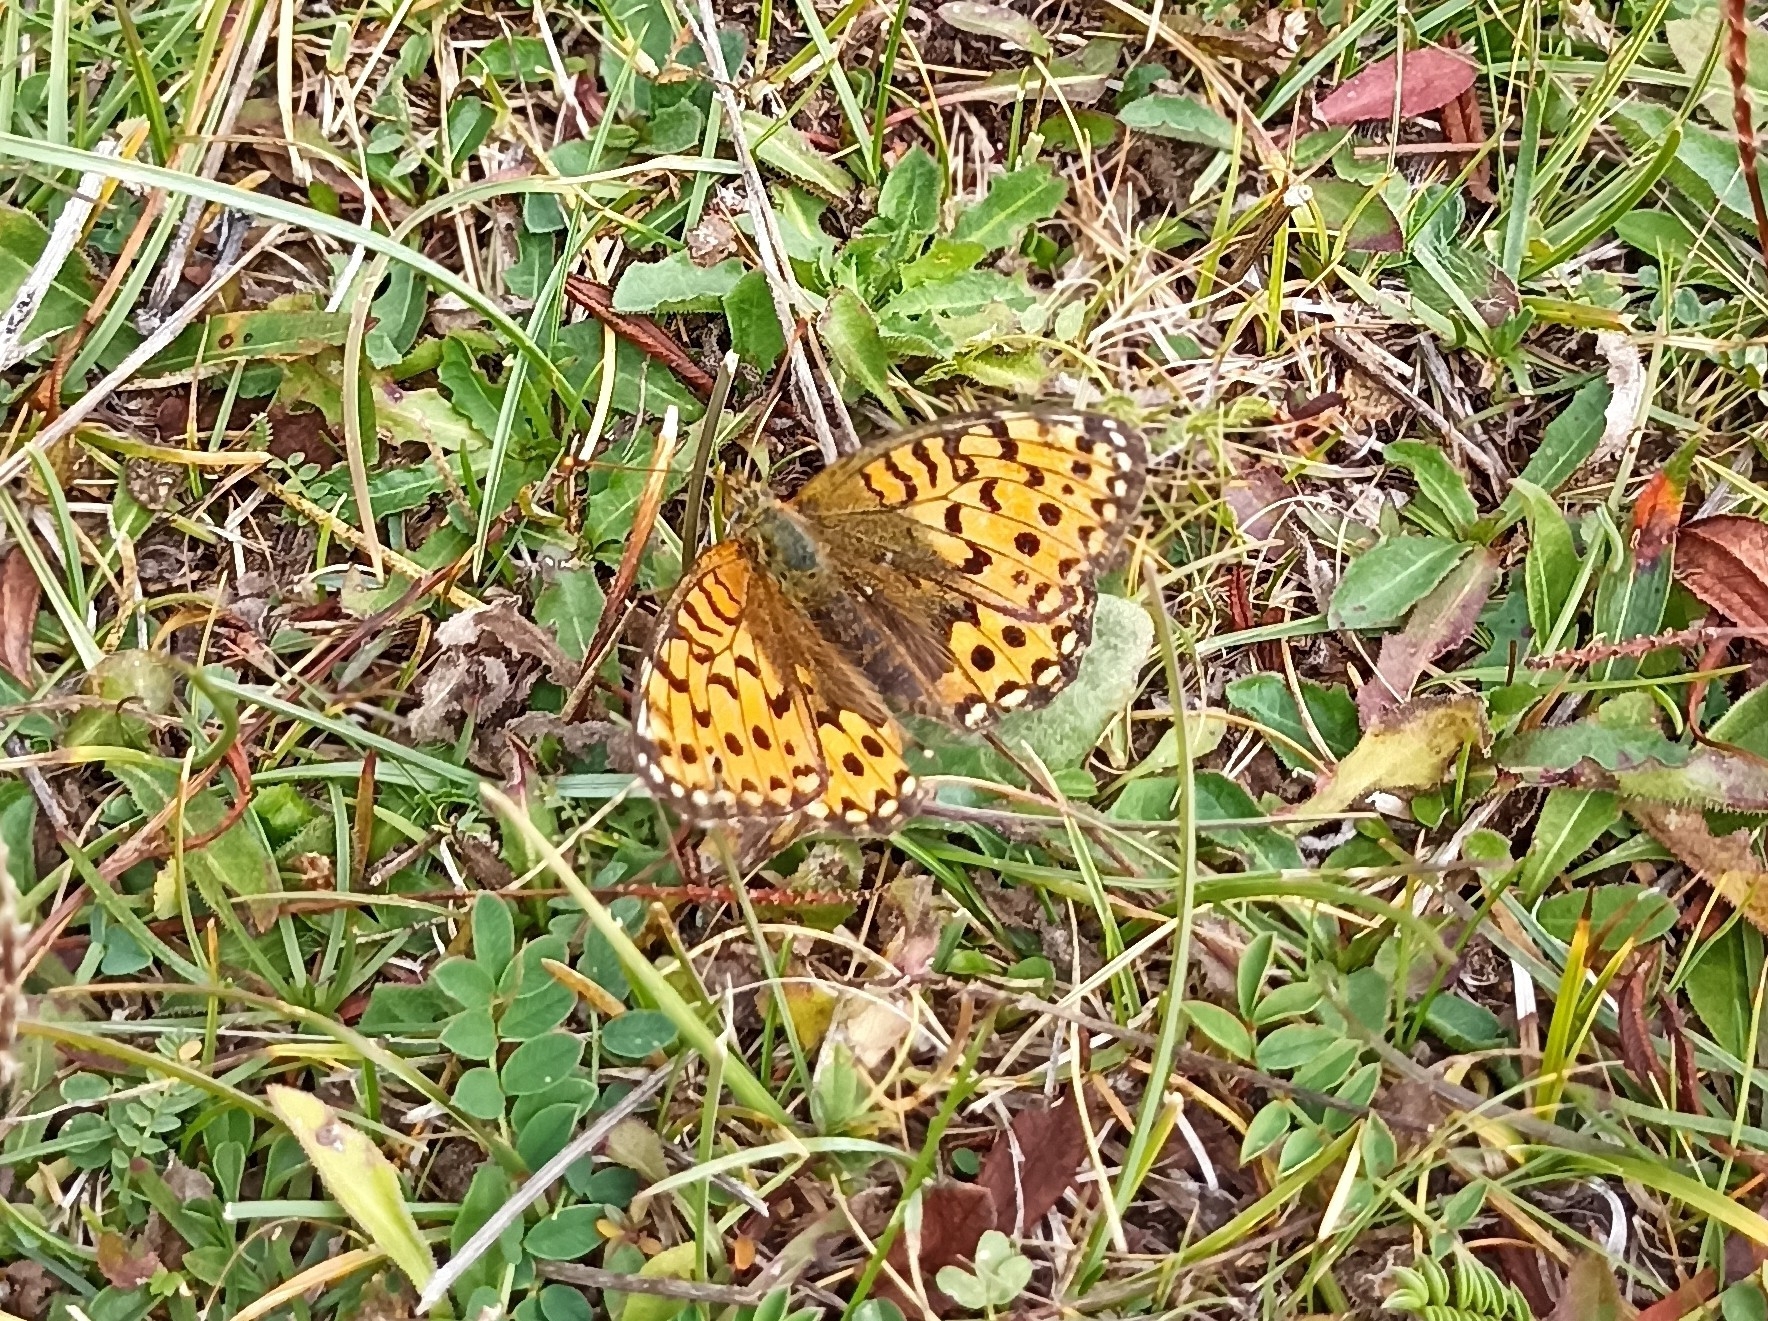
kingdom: Animalia
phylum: Arthropoda
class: Insecta
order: Lepidoptera
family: Nymphalidae
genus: Speyeria
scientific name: Speyeria aglaja
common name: Dark green fritillary
